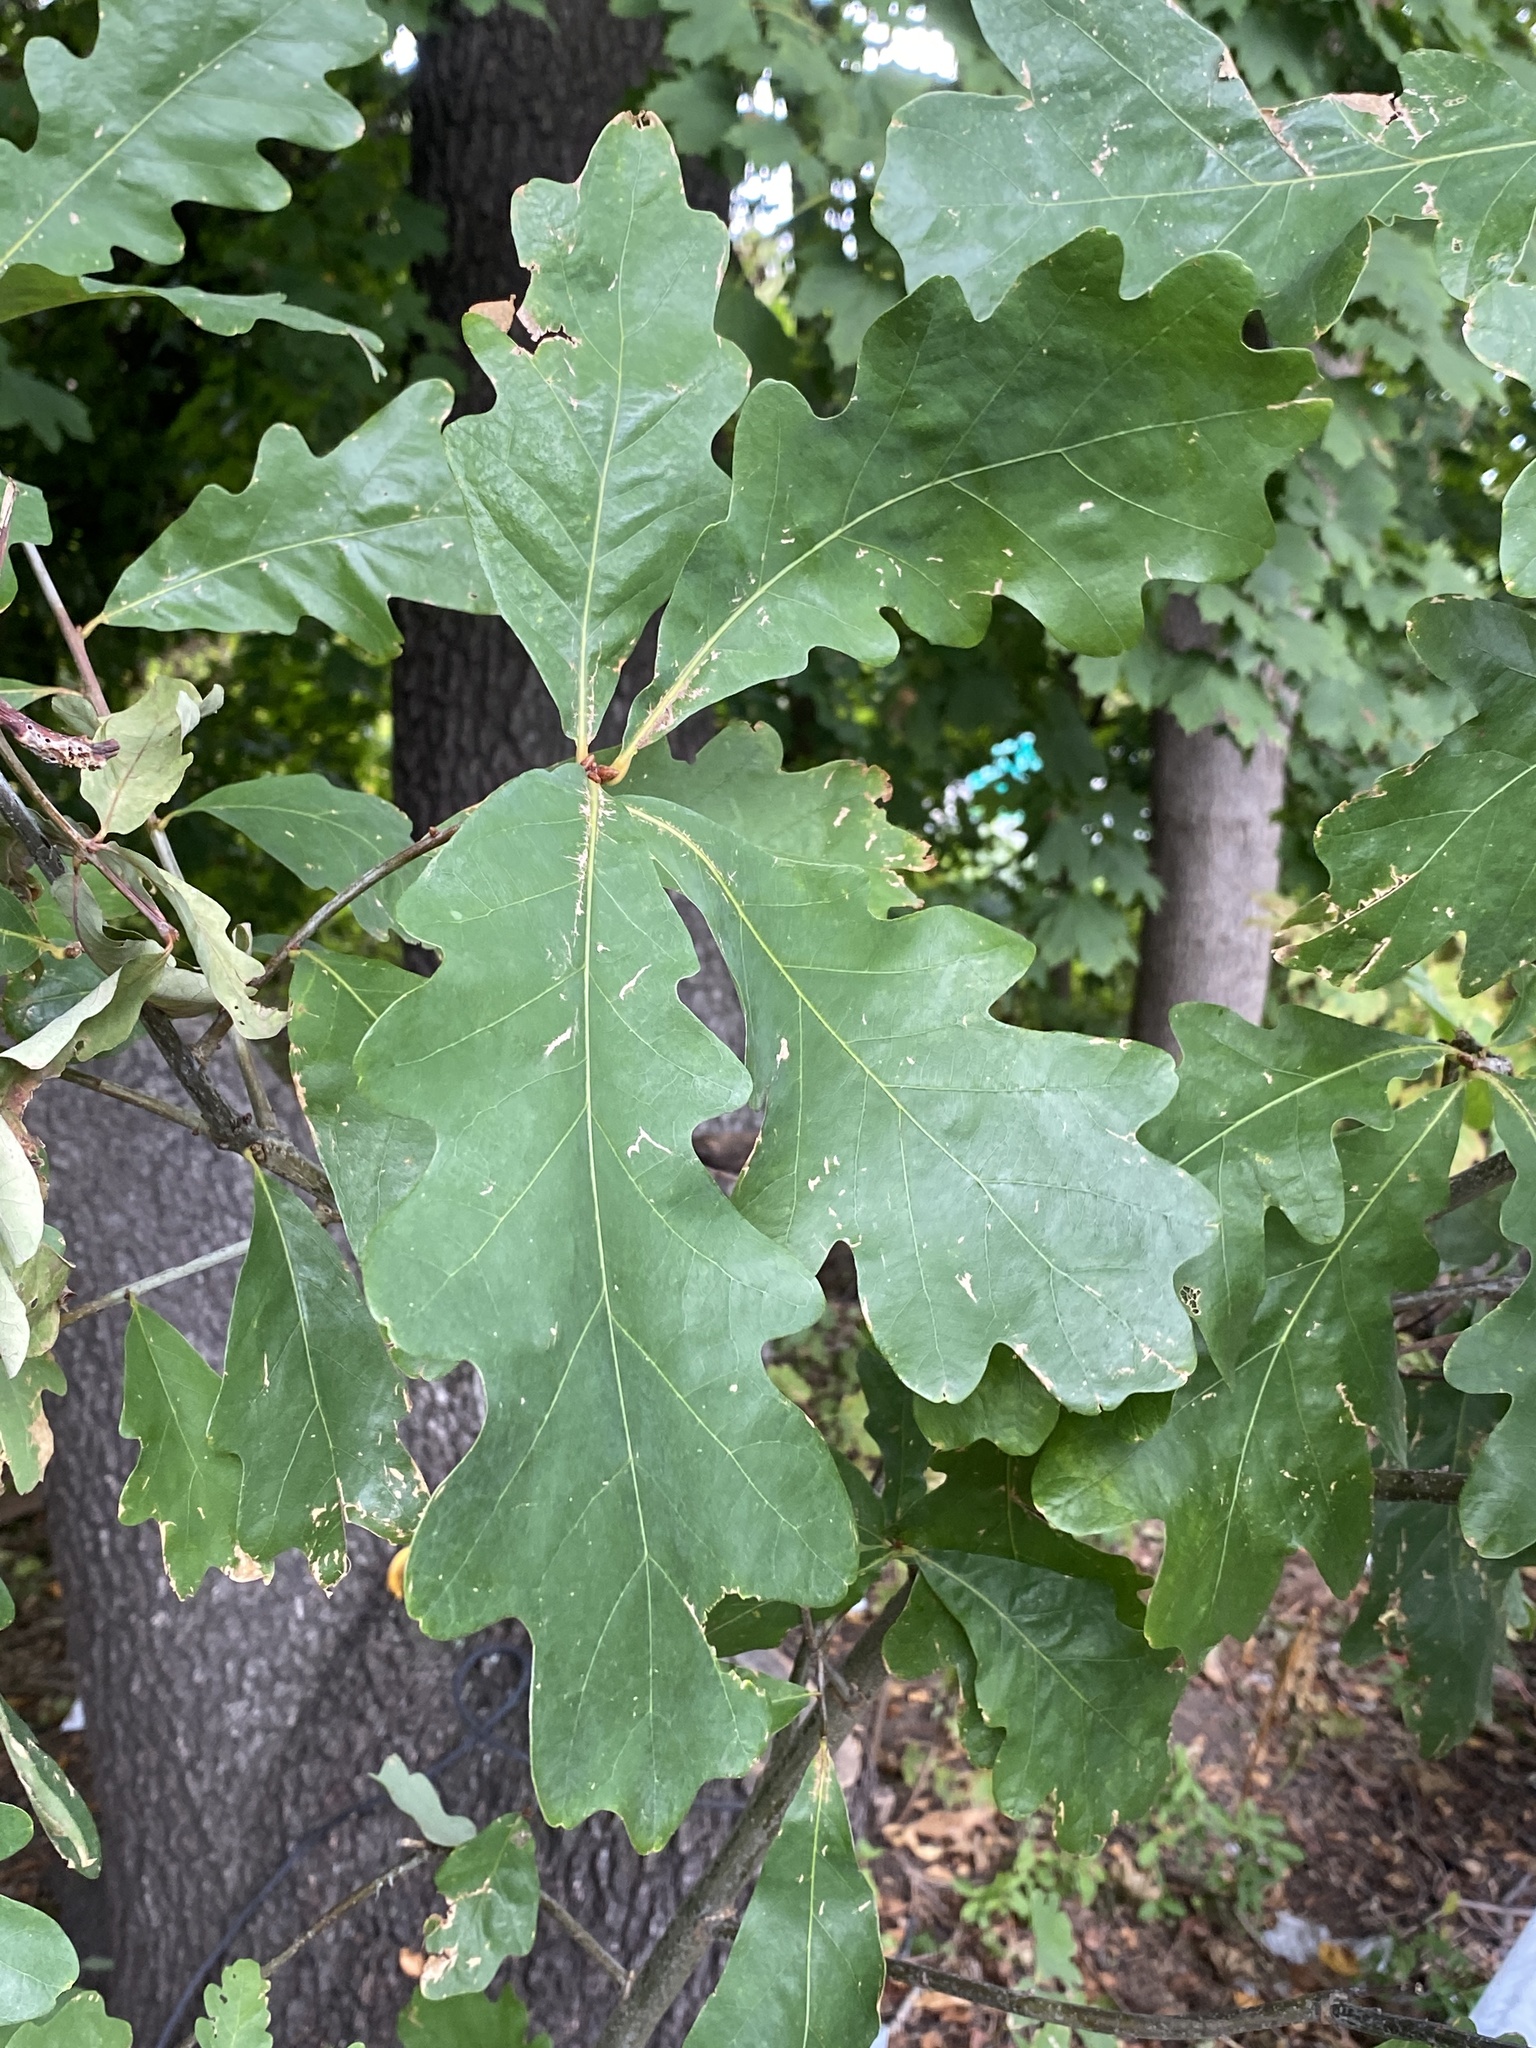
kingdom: Plantae
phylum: Tracheophyta
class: Magnoliopsida
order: Fagales
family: Fagaceae
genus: Quercus
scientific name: Quercus alba
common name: White oak
